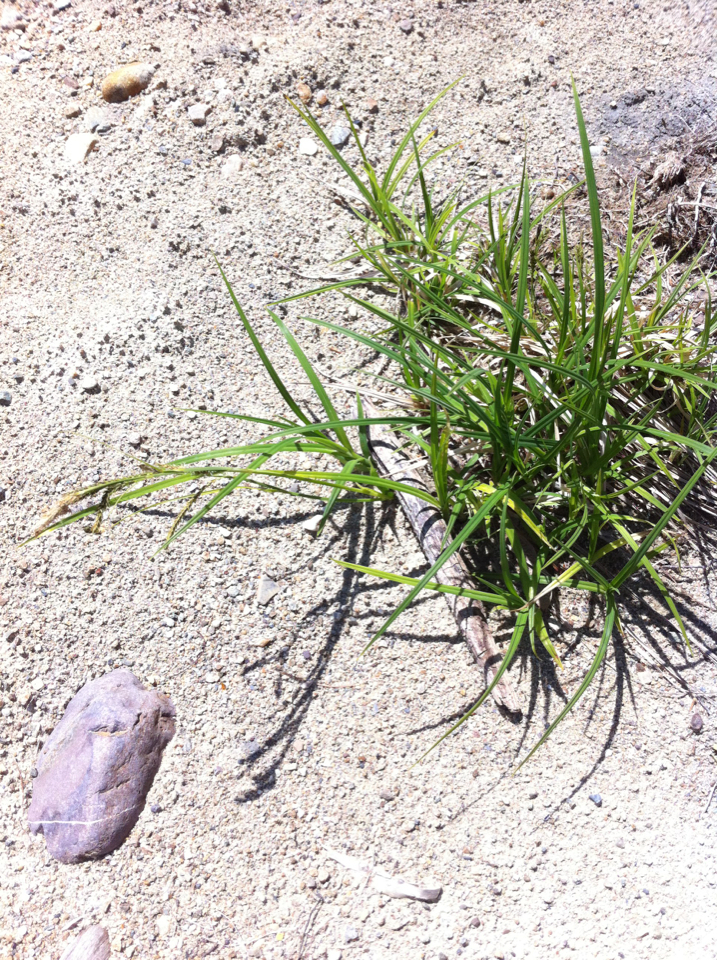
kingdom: Plantae
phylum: Tracheophyta
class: Liliopsida
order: Poales
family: Cyperaceae
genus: Carex
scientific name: Carex torta
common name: Twisted sedge
